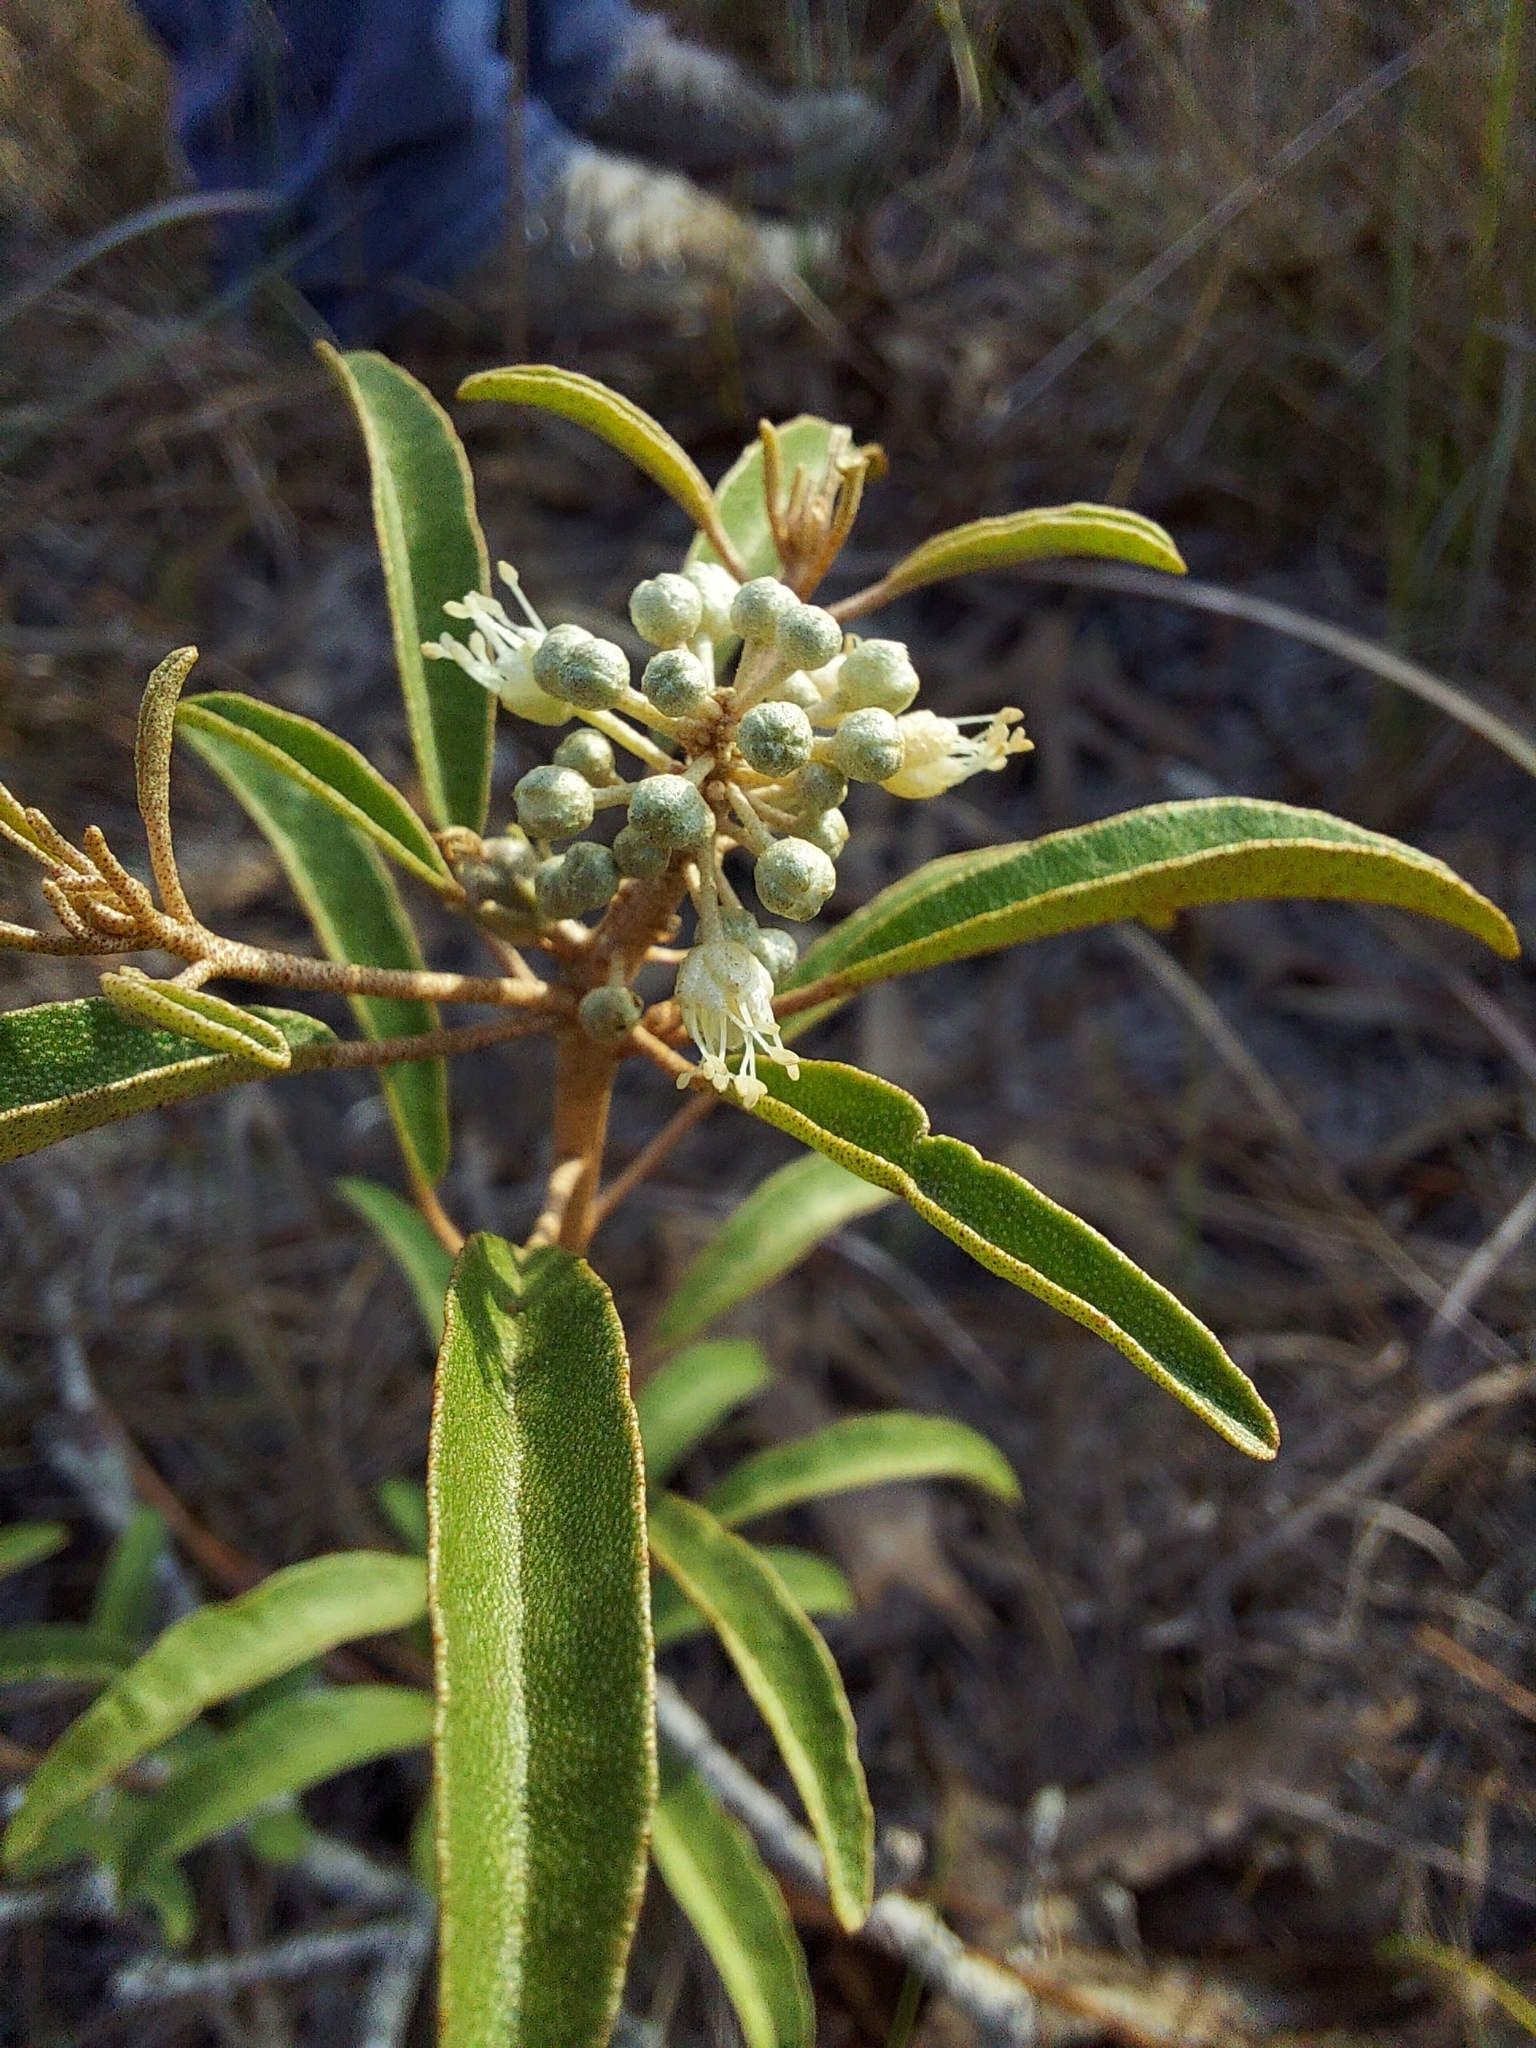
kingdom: Plantae
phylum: Tracheophyta
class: Magnoliopsida
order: Malpighiales
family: Euphorbiaceae
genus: Croton
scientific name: Croton argyranthemus
